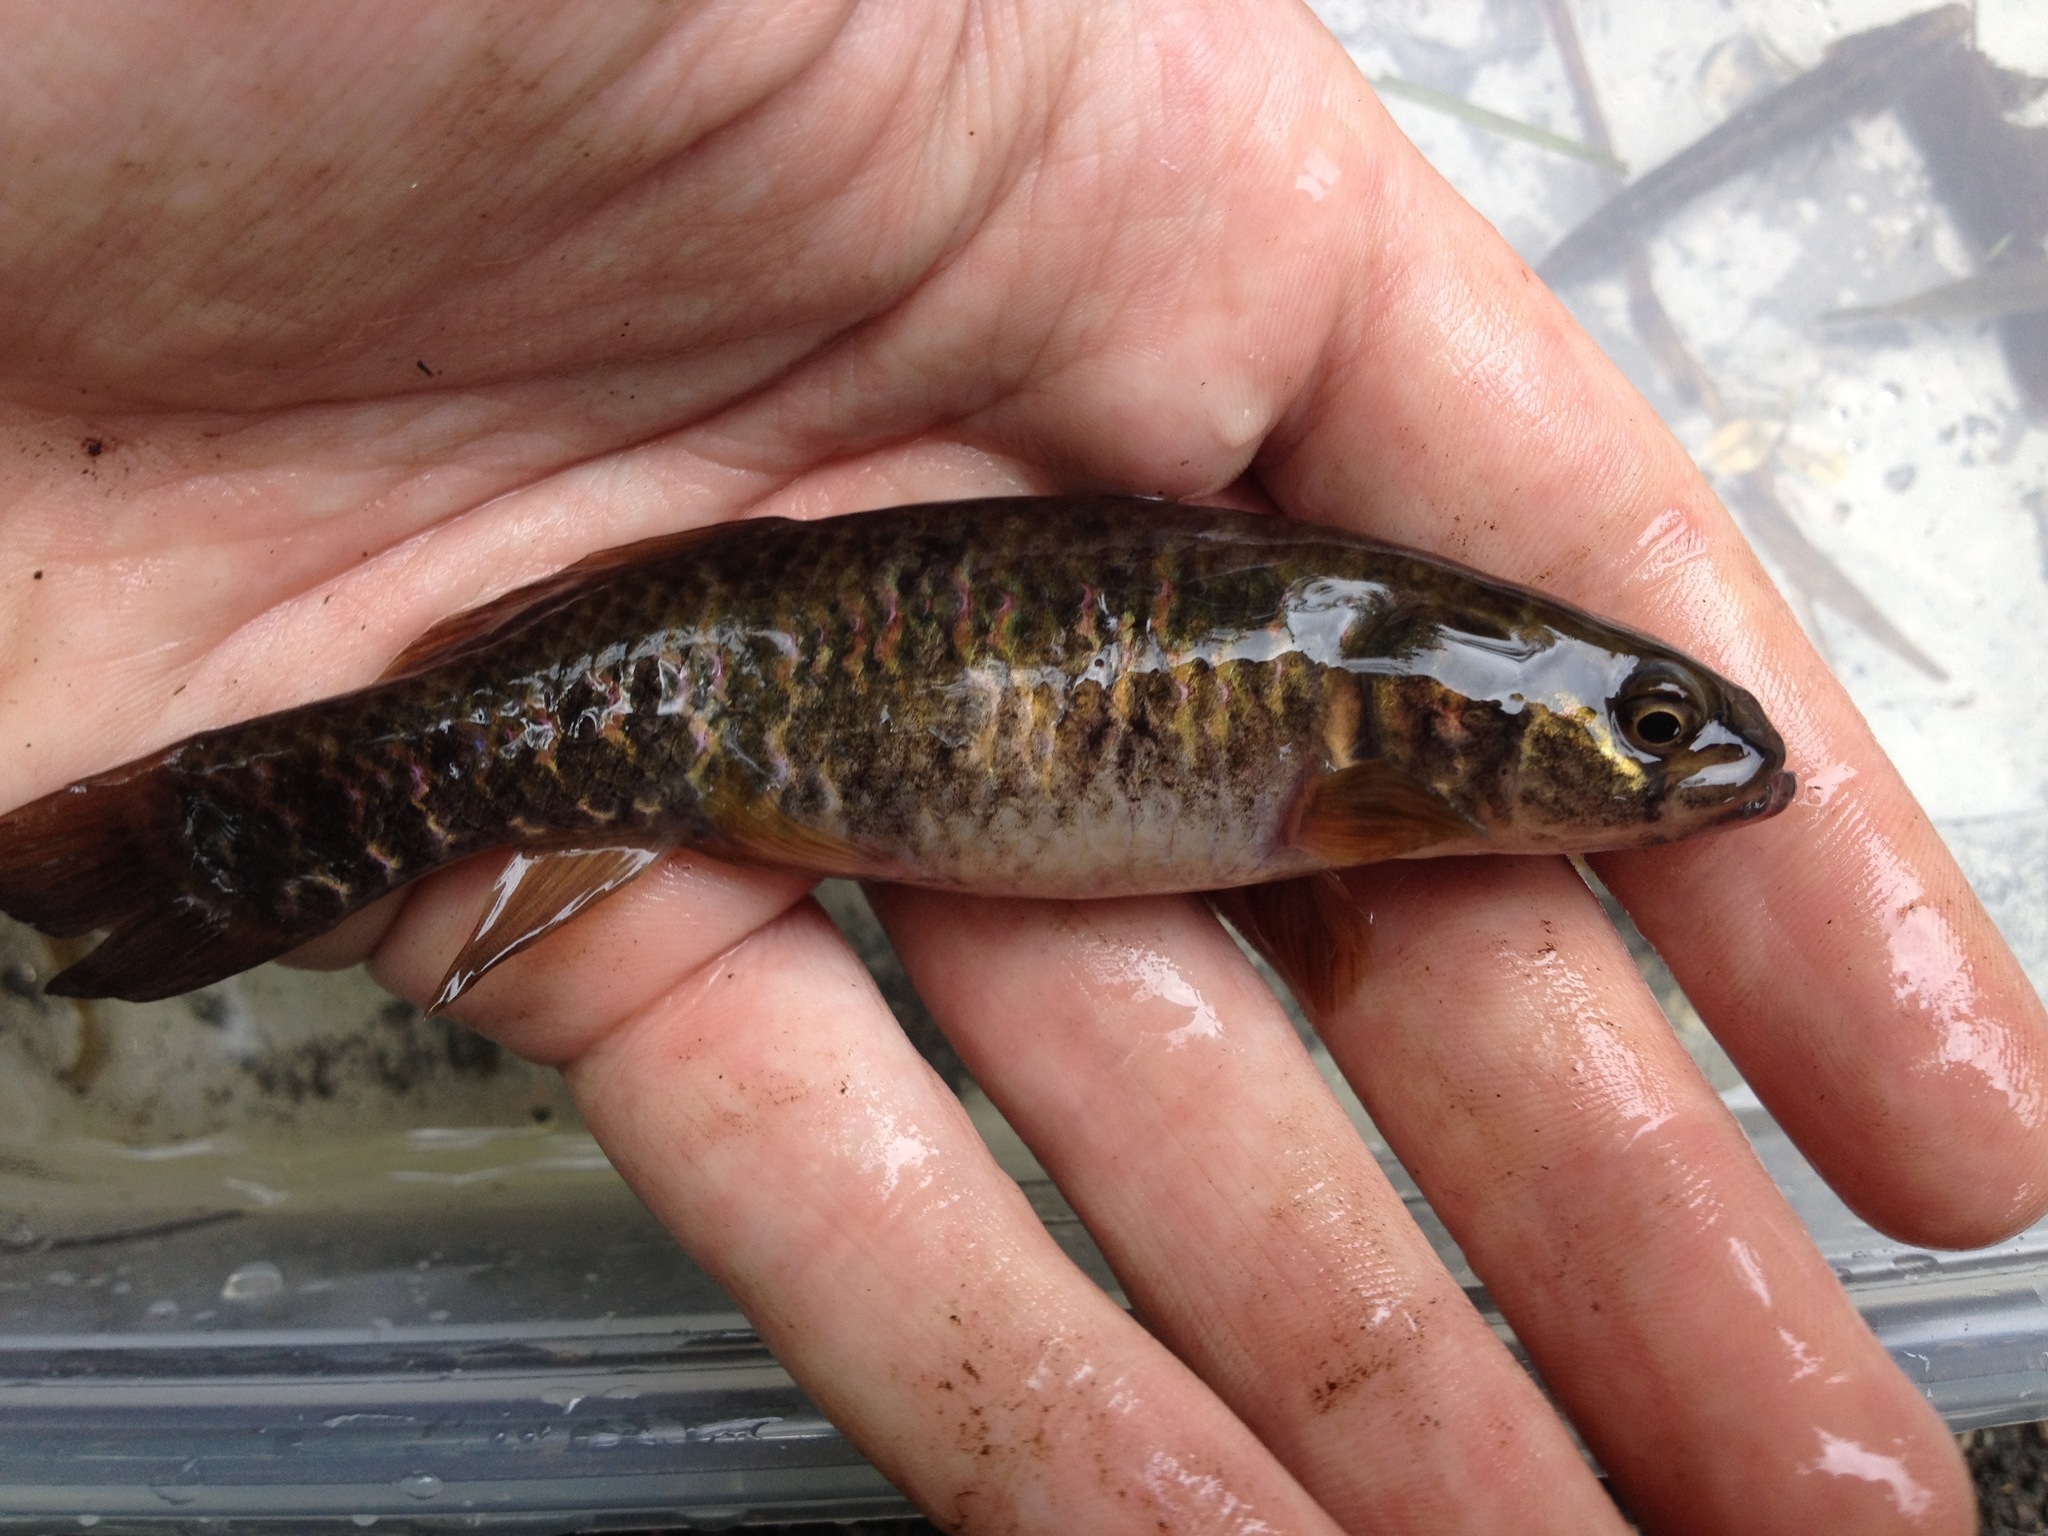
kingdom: Animalia
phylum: Chordata
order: Esociformes
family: Umbridae
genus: Umbra
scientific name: Umbra limi
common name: Central mudminnow
